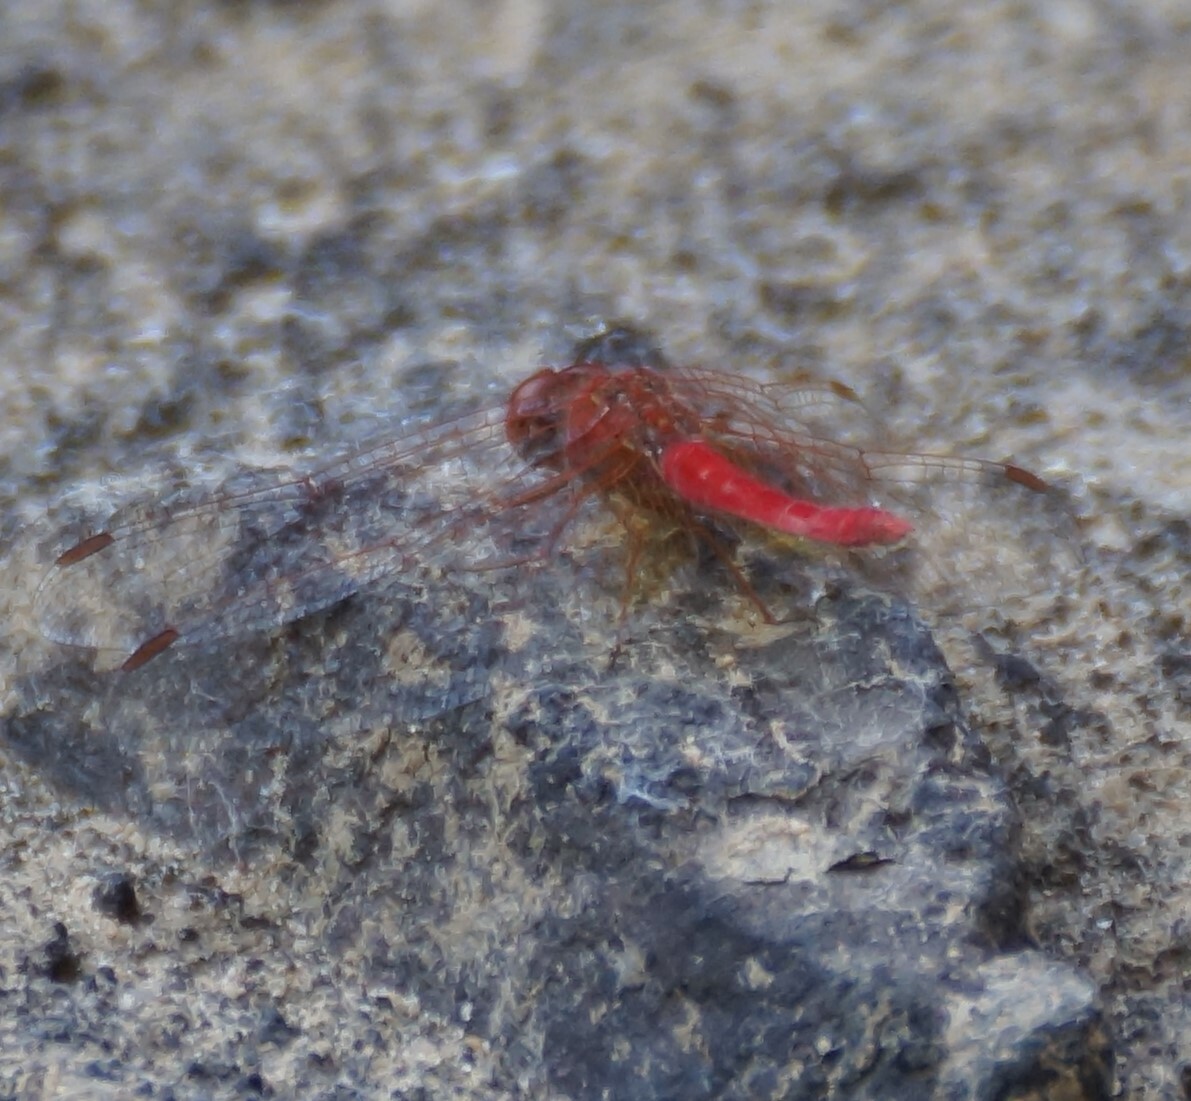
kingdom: Animalia
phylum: Arthropoda
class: Insecta
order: Odonata
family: Libellulidae
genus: Diplacodes
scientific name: Diplacodes haematodes
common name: Scarlet percher
